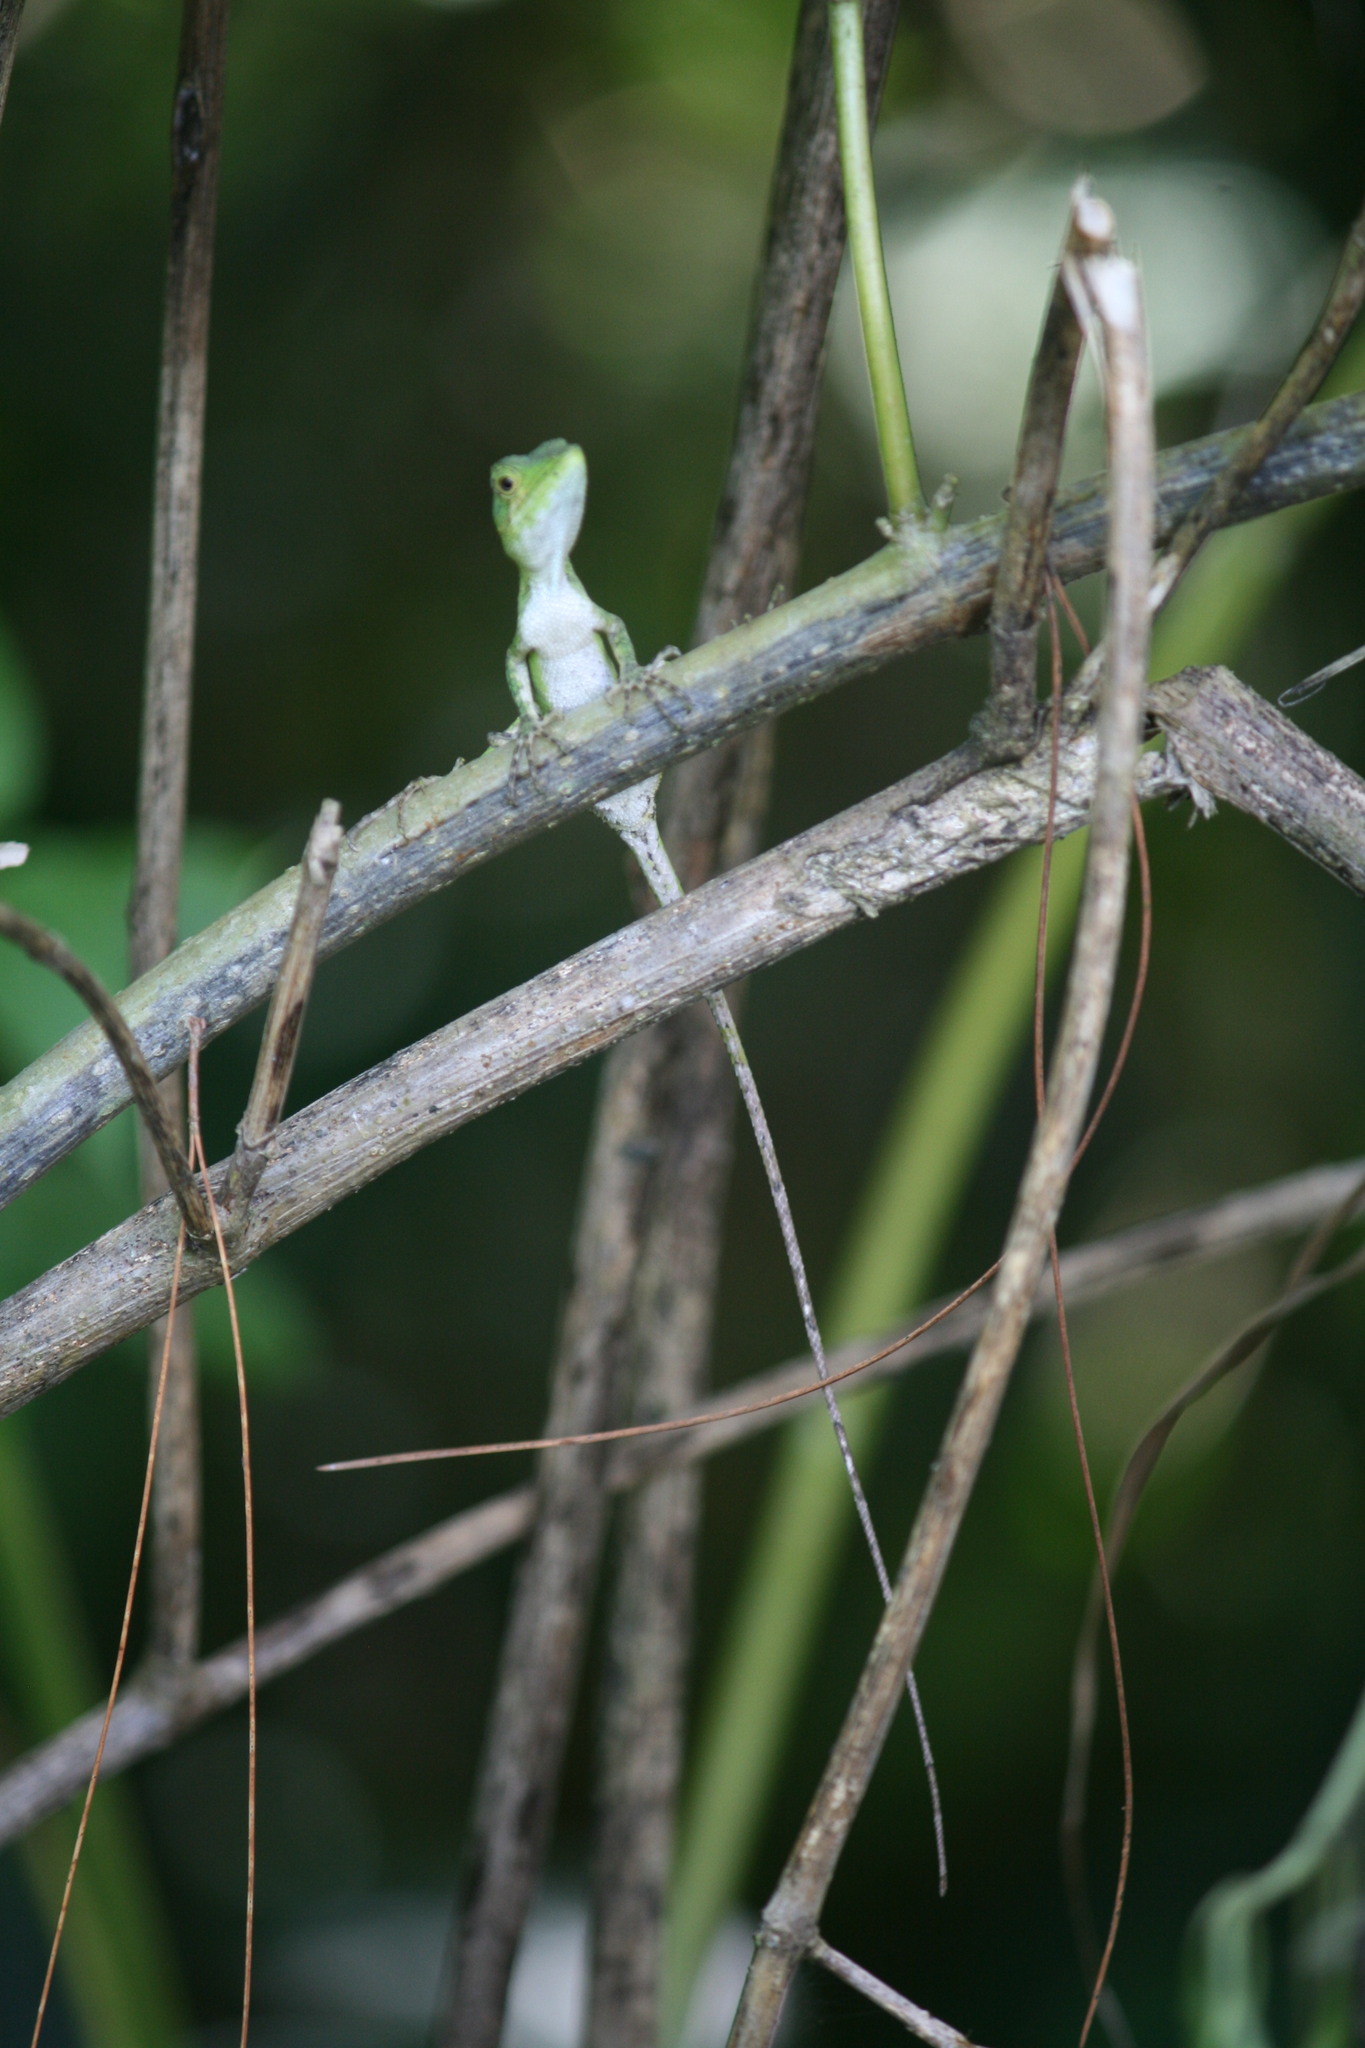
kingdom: Animalia
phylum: Chordata
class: Squamata
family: Agamidae
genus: Pseudocalotes
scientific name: Pseudocalotes tympanistriga
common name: Indonesian false bloodsucker
